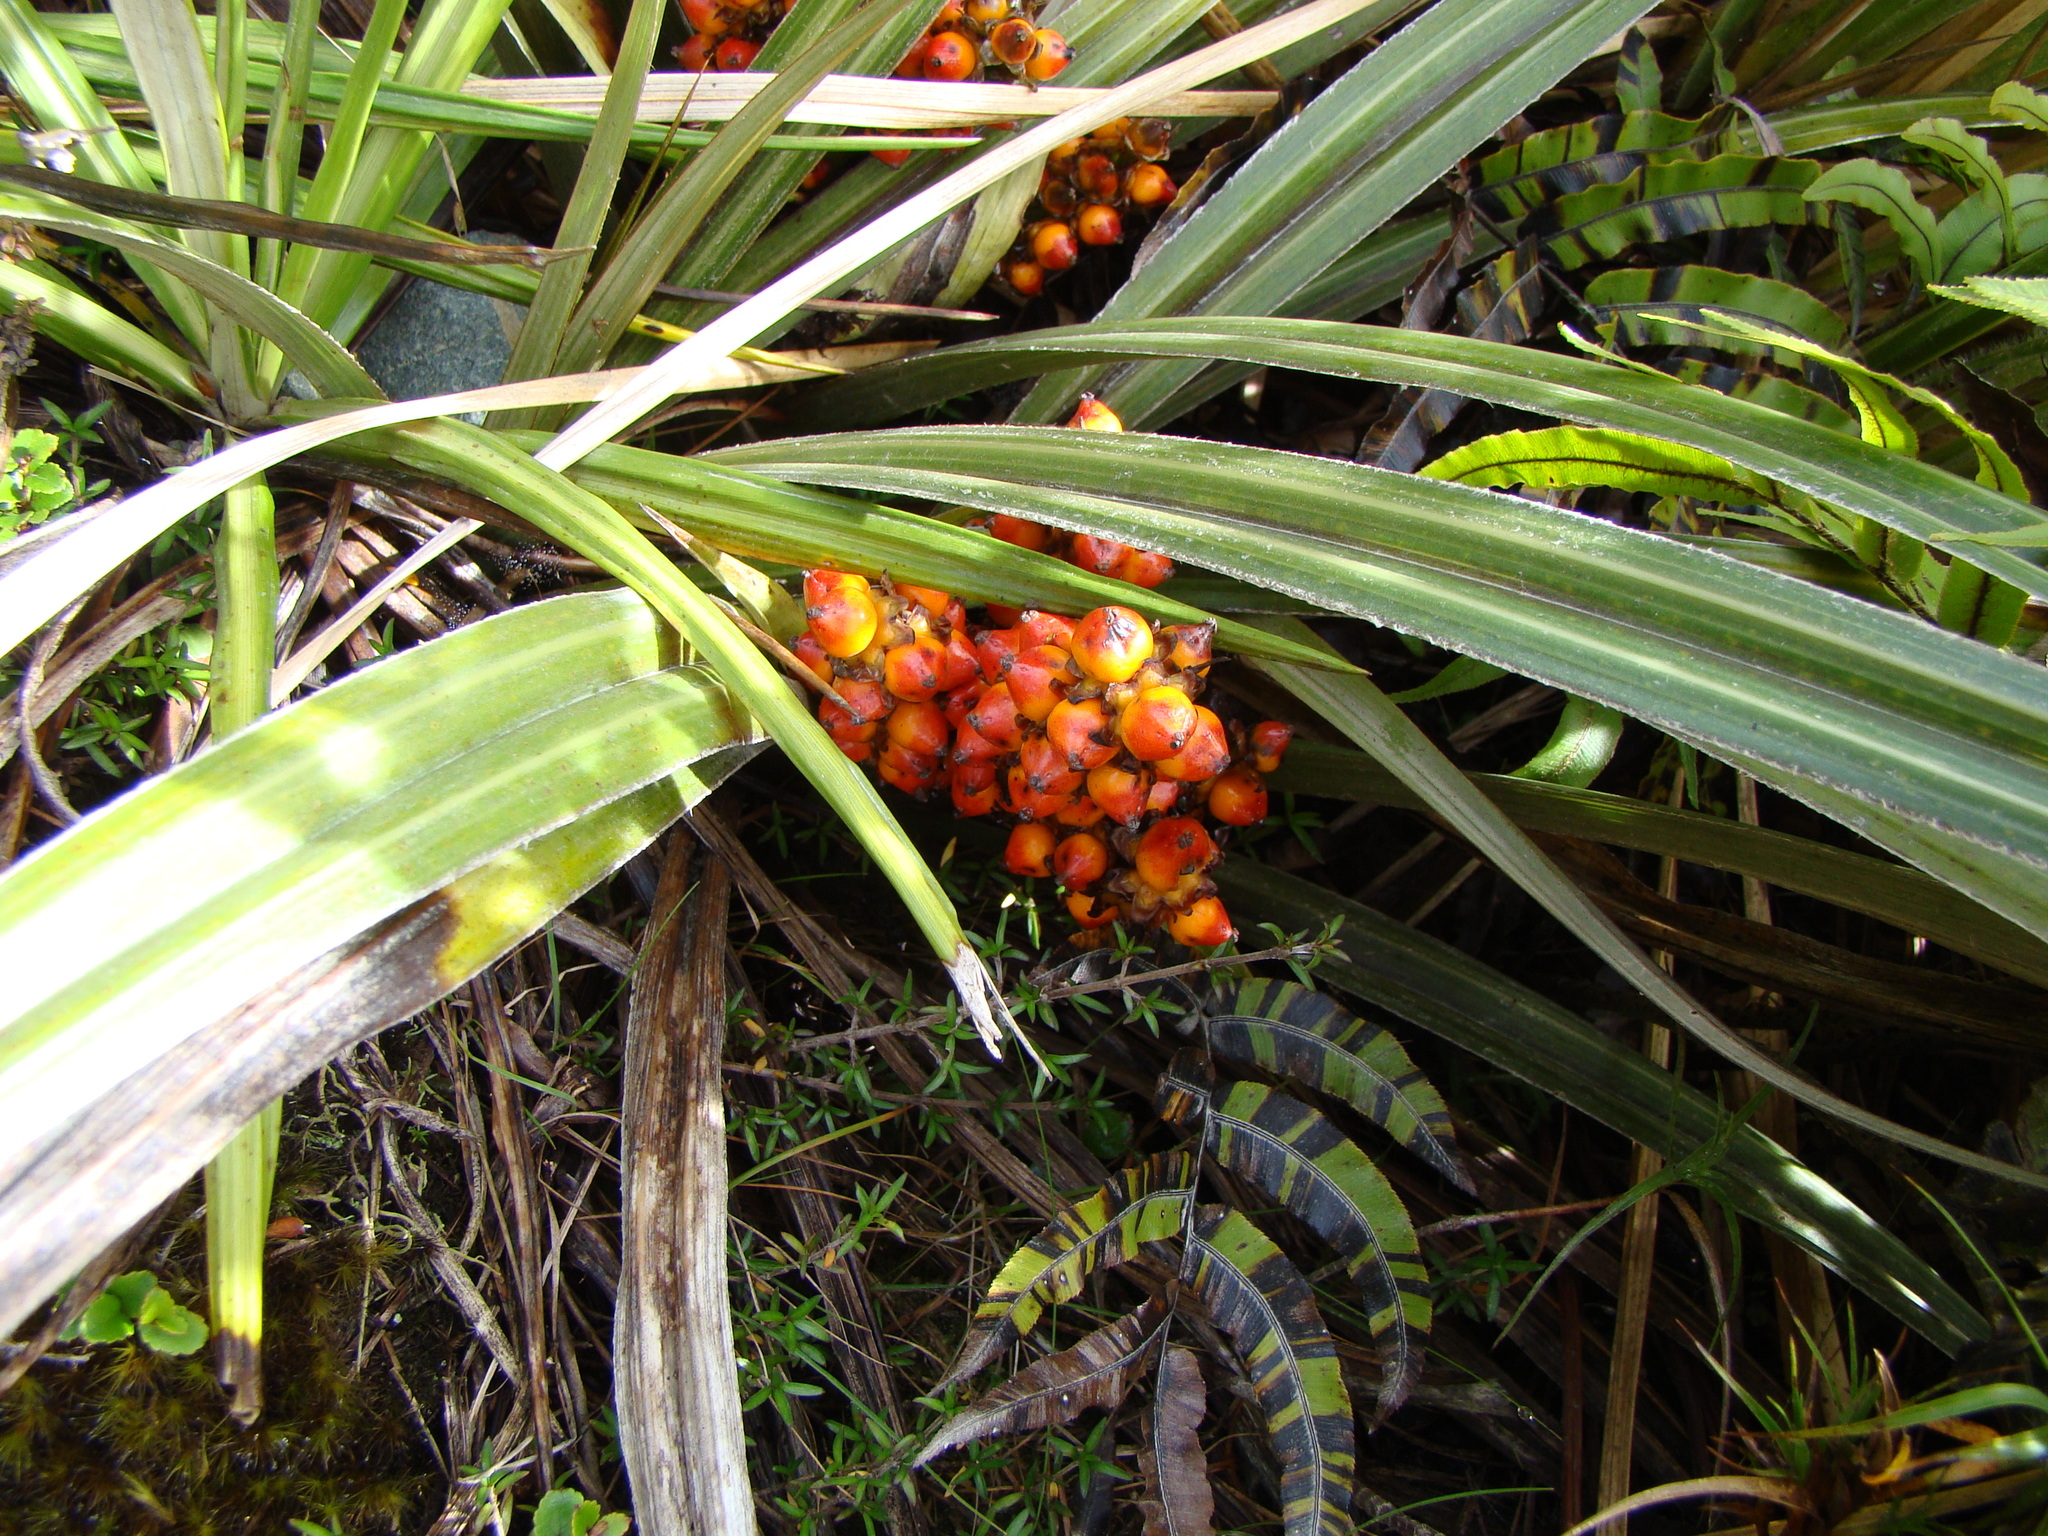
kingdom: Plantae
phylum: Tracheophyta
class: Liliopsida
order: Asparagales
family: Asteliaceae
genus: Astelia
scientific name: Astelia nervosa
